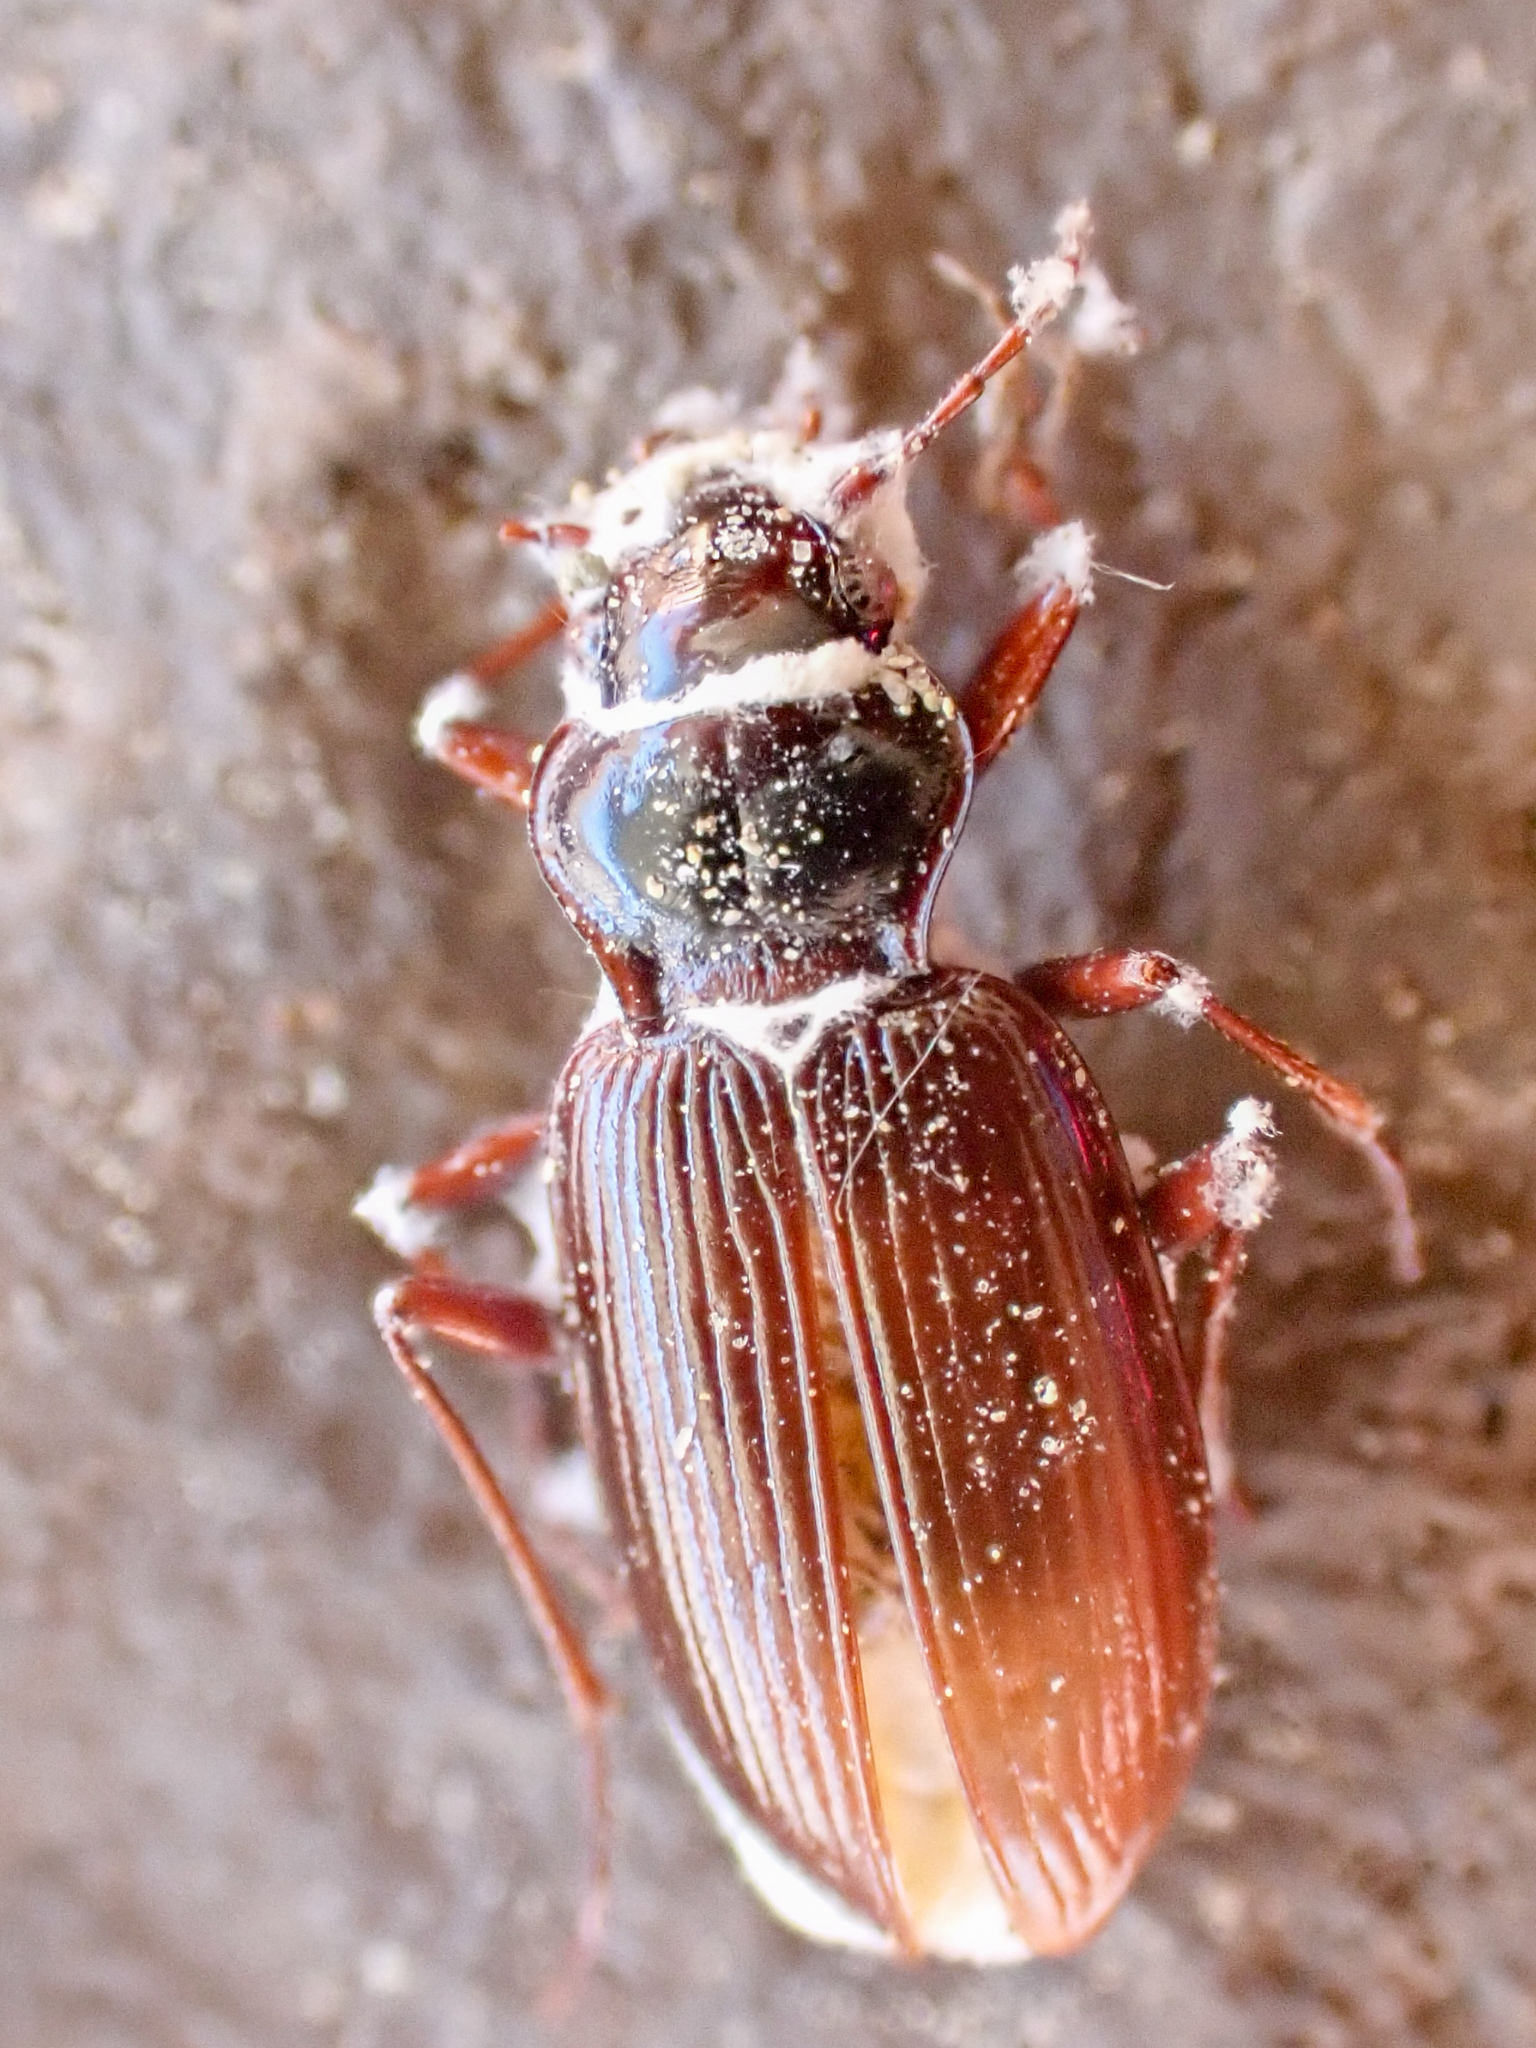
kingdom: Fungi
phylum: Ascomycota
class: Sordariomycetes
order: Hypocreales
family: Cordycipitaceae
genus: Beauveria
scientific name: Beauveria bassiana
